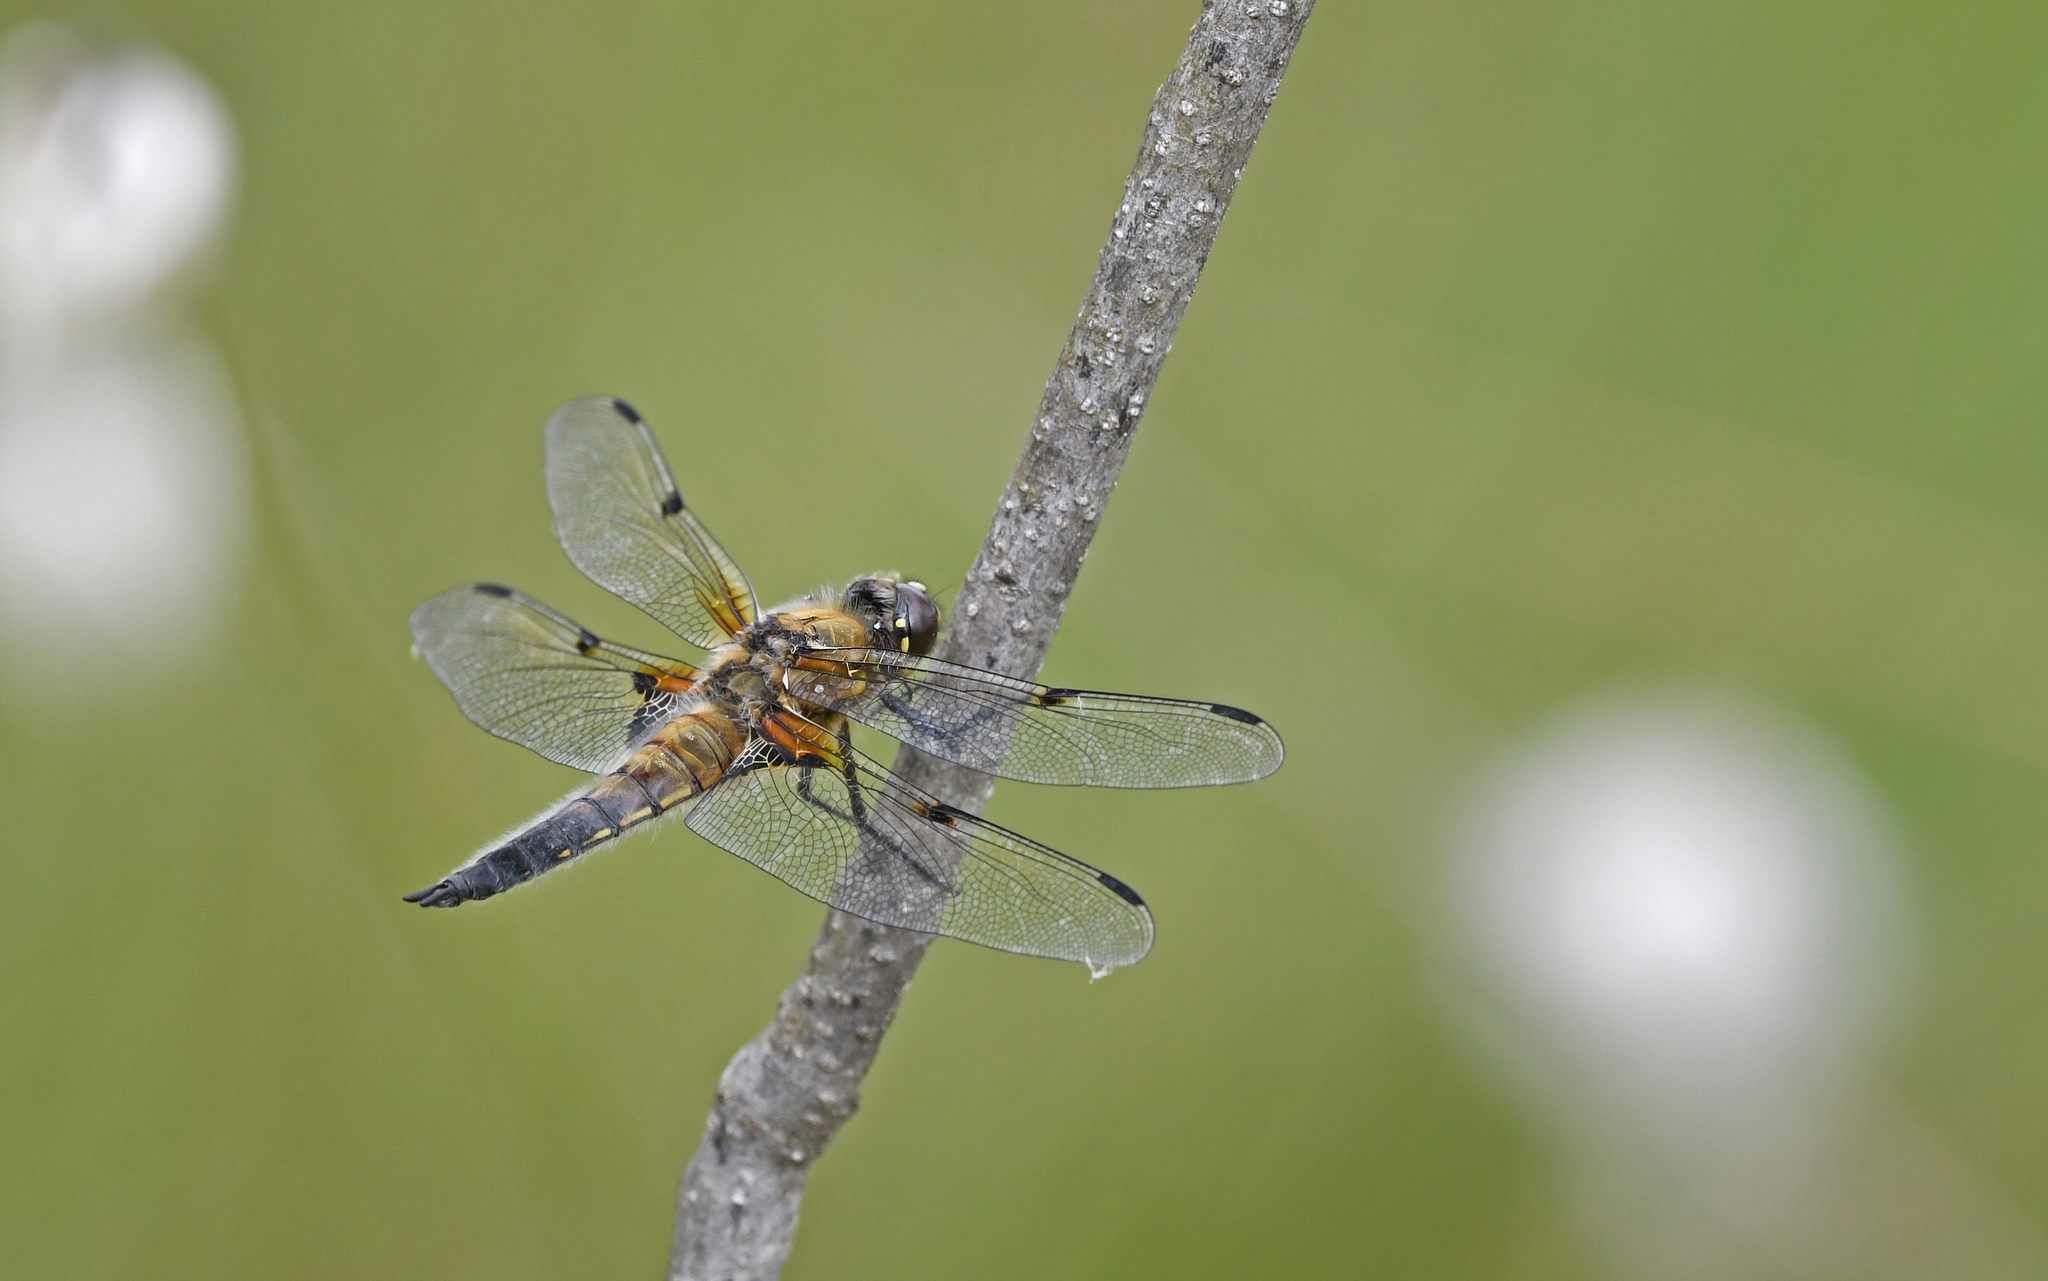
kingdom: Animalia
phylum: Arthropoda
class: Insecta
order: Odonata
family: Libellulidae
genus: Libellula
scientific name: Libellula quadrimaculata
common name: Four-spotted chaser
